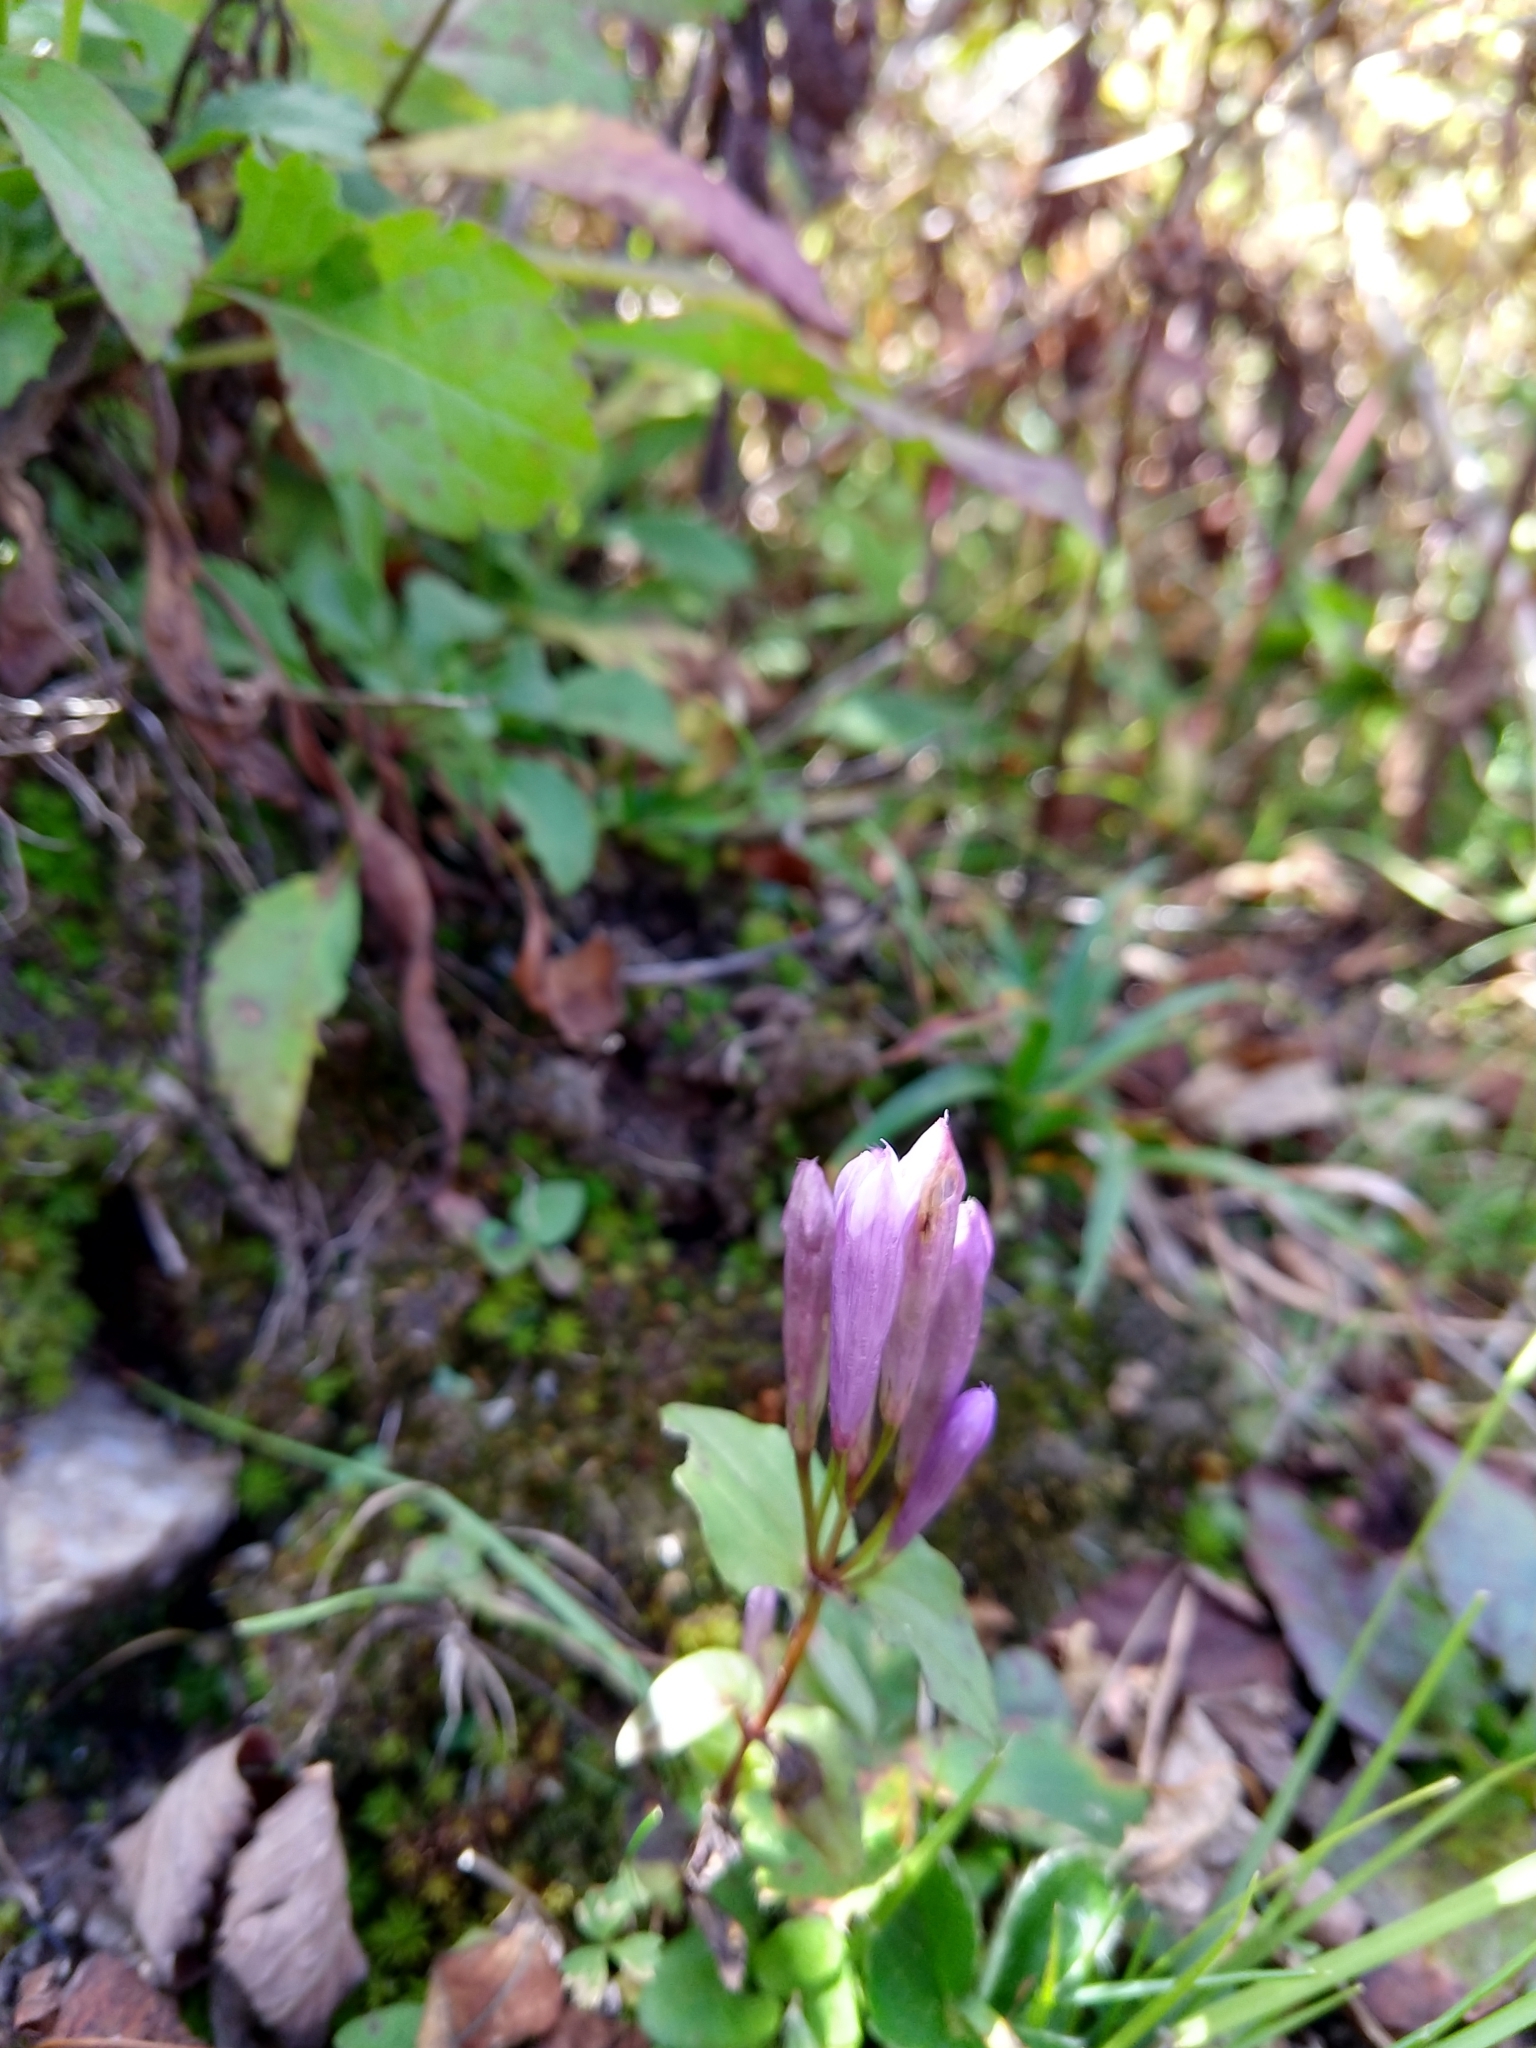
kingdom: Plantae
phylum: Tracheophyta
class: Magnoliopsida
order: Gentianales
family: Gentianaceae
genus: Gentianella
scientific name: Gentianella quinquefolia
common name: Agueweed
